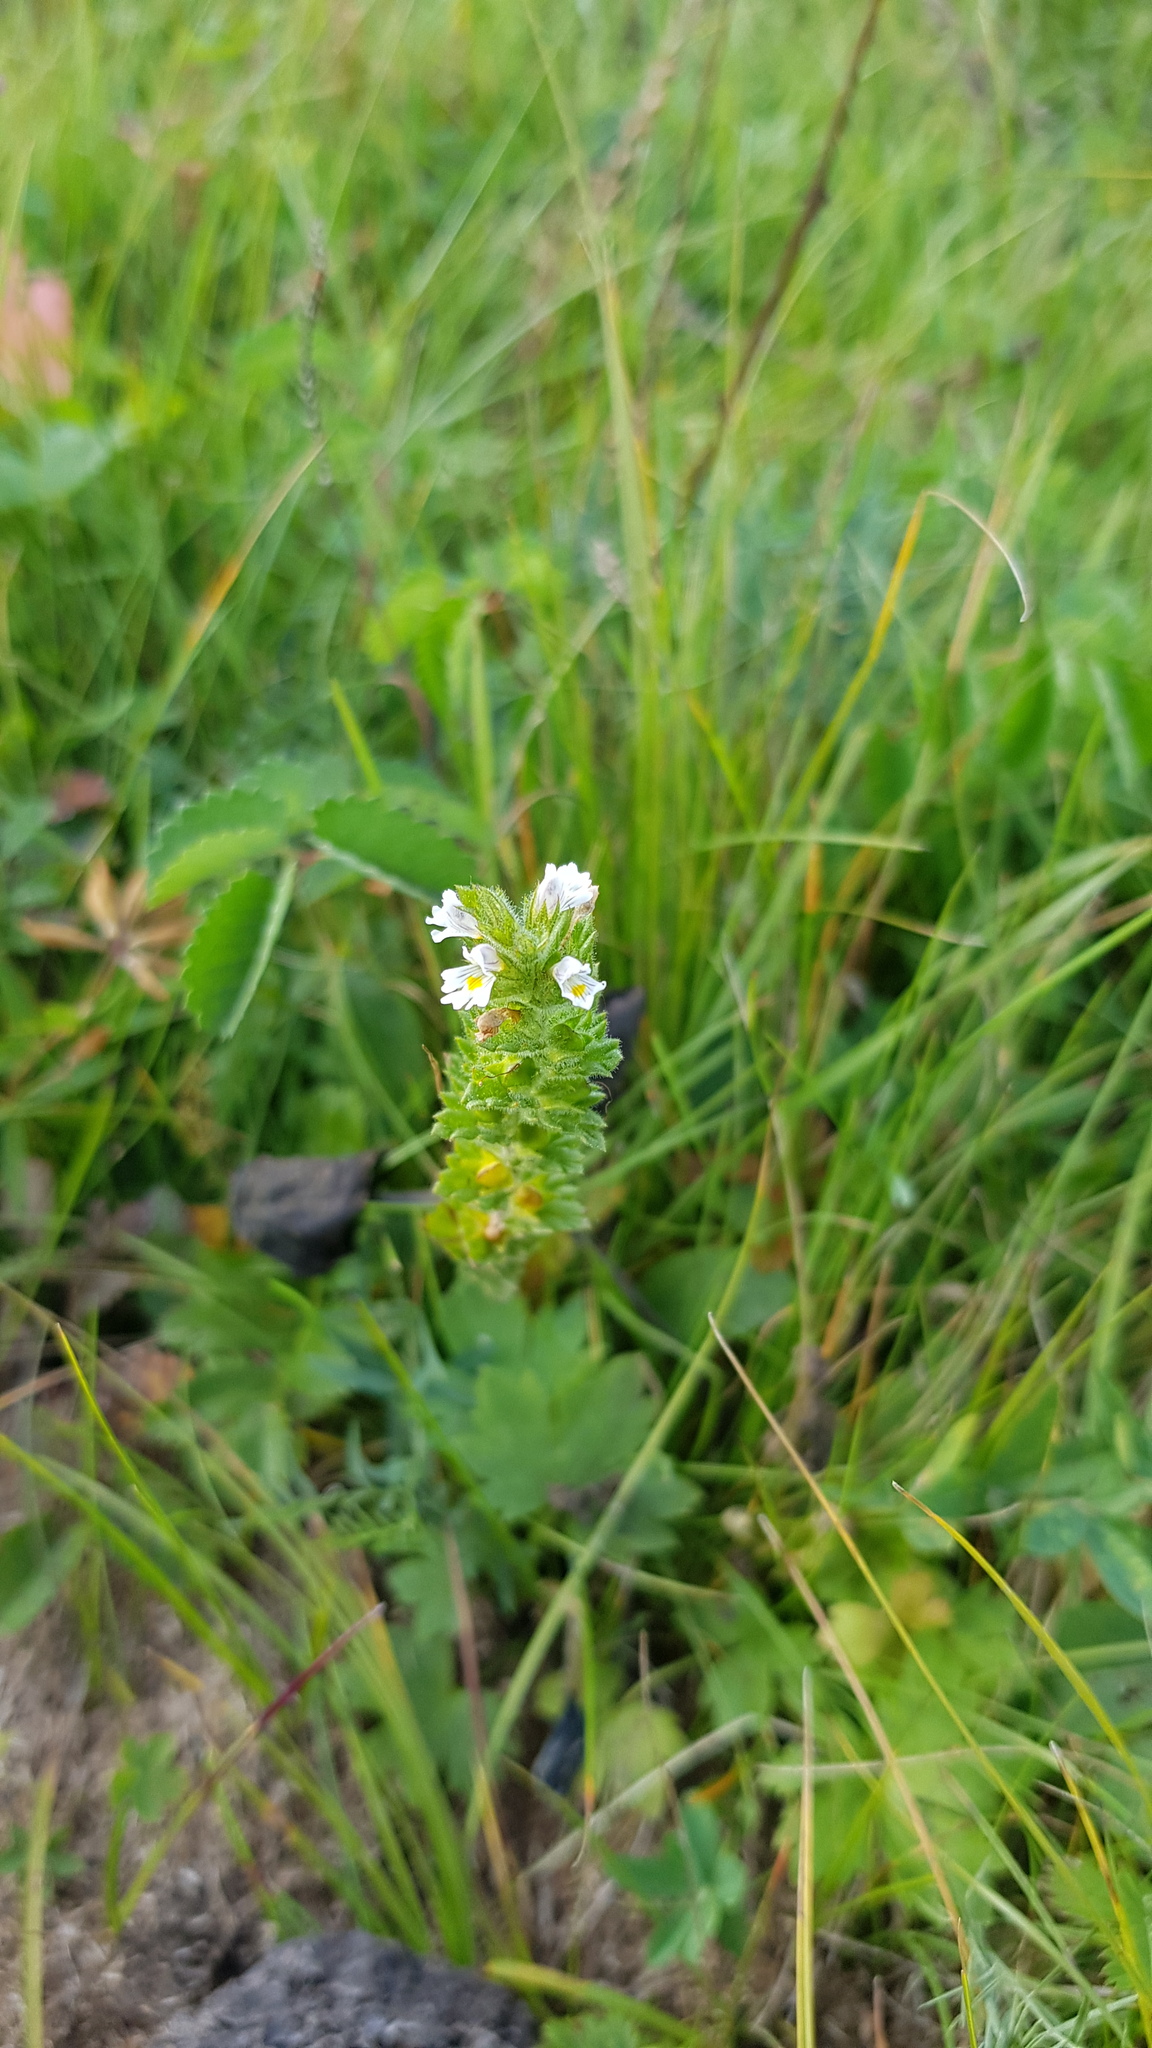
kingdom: Plantae
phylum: Tracheophyta
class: Magnoliopsida
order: Lamiales
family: Orobanchaceae
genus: Euphrasia
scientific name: Euphrasia pectinata
